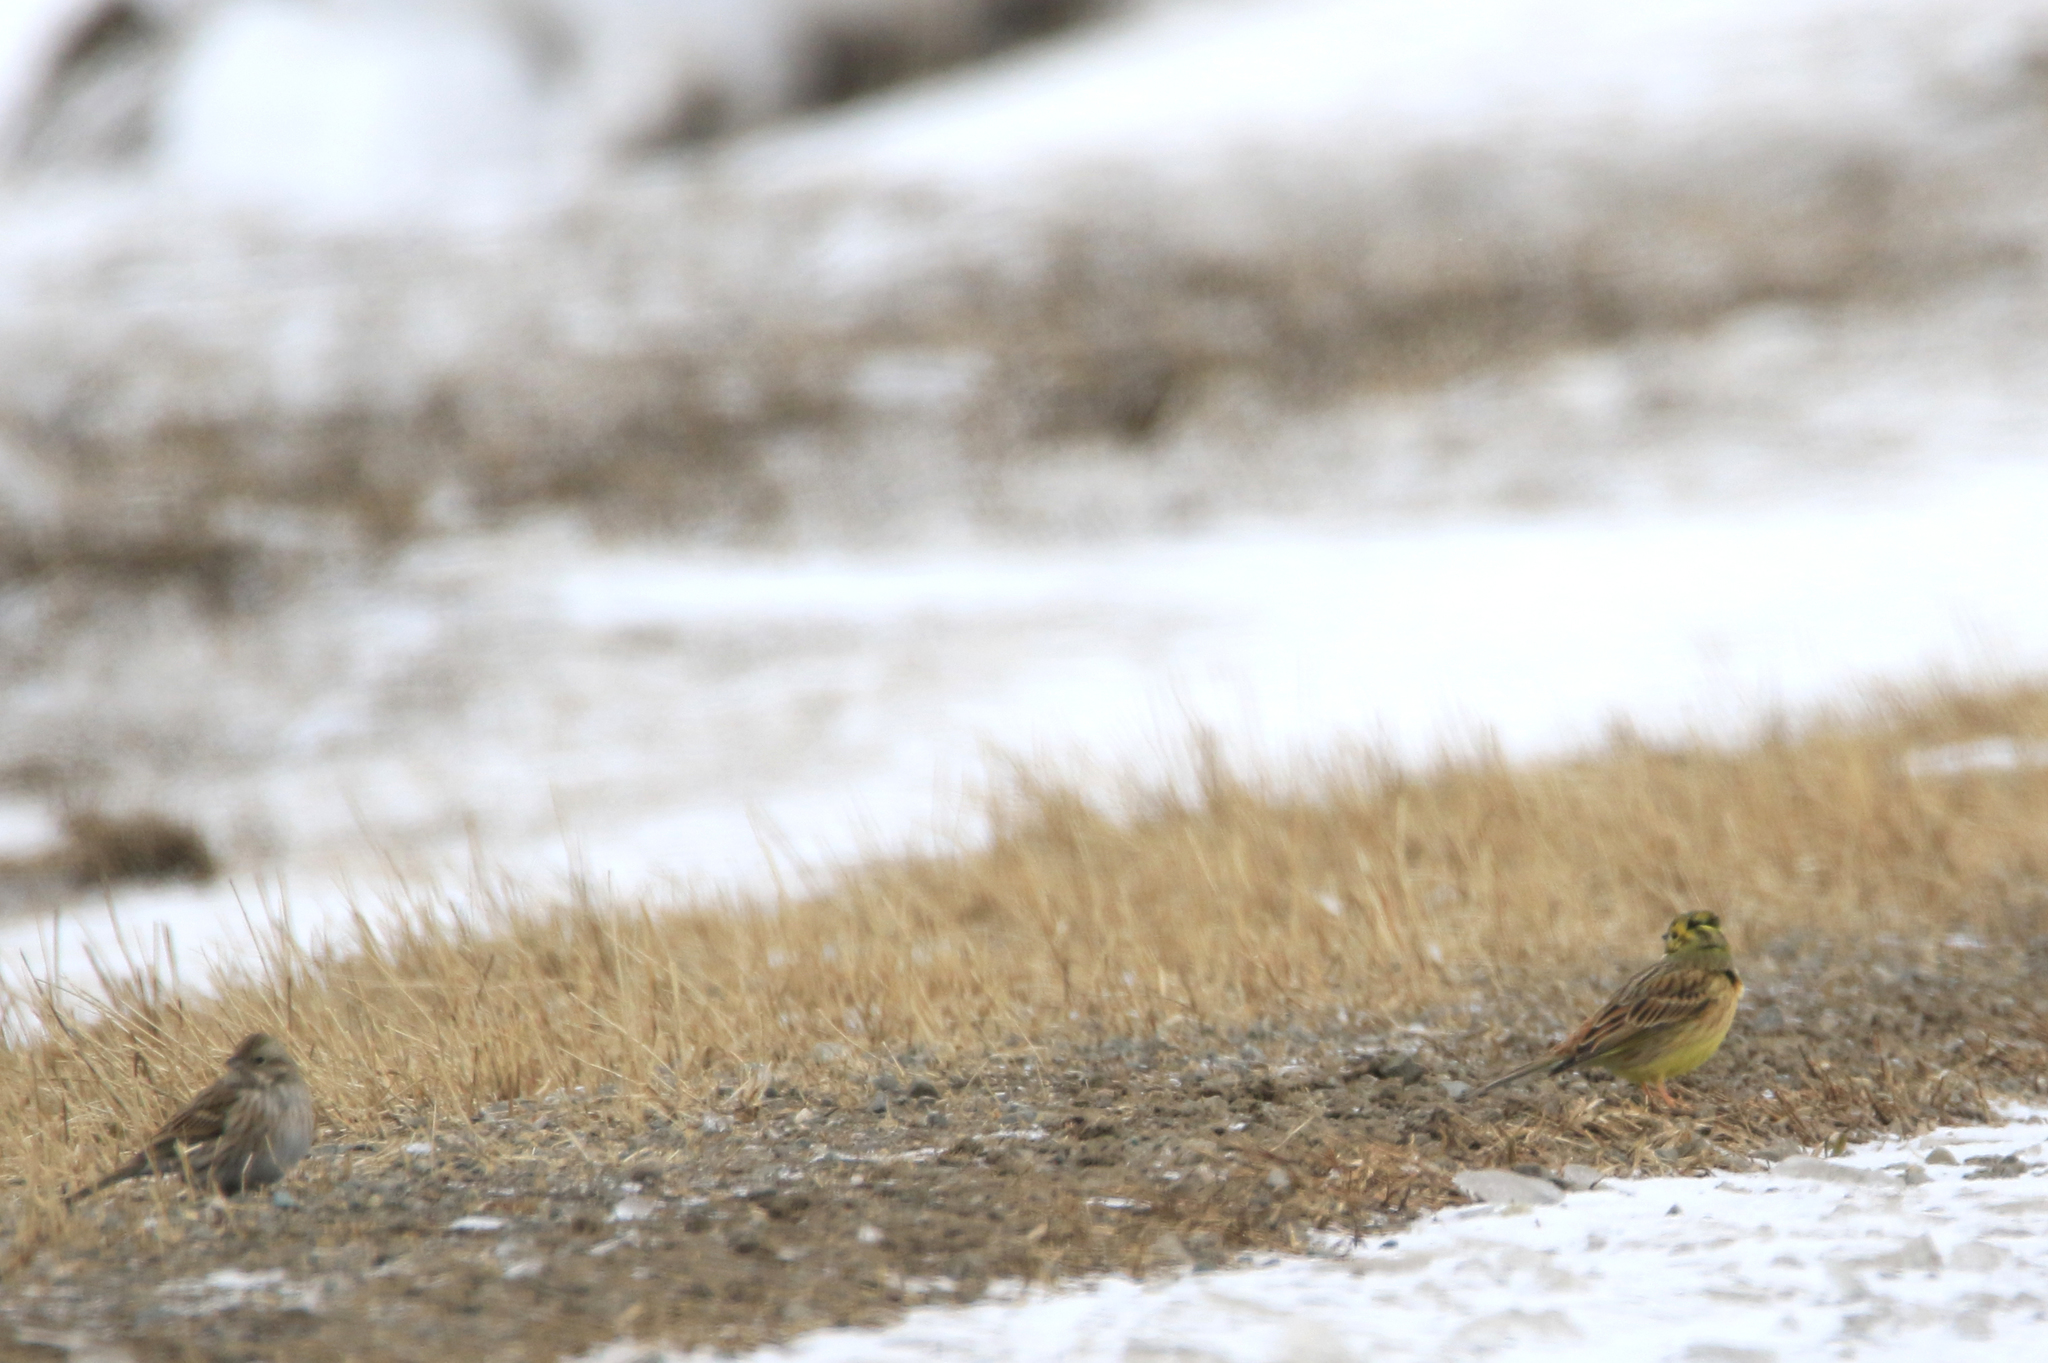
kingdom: Animalia
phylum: Chordata
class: Aves
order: Passeriformes
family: Emberizidae
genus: Emberiza
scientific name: Emberiza citrinella
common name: Yellowhammer
